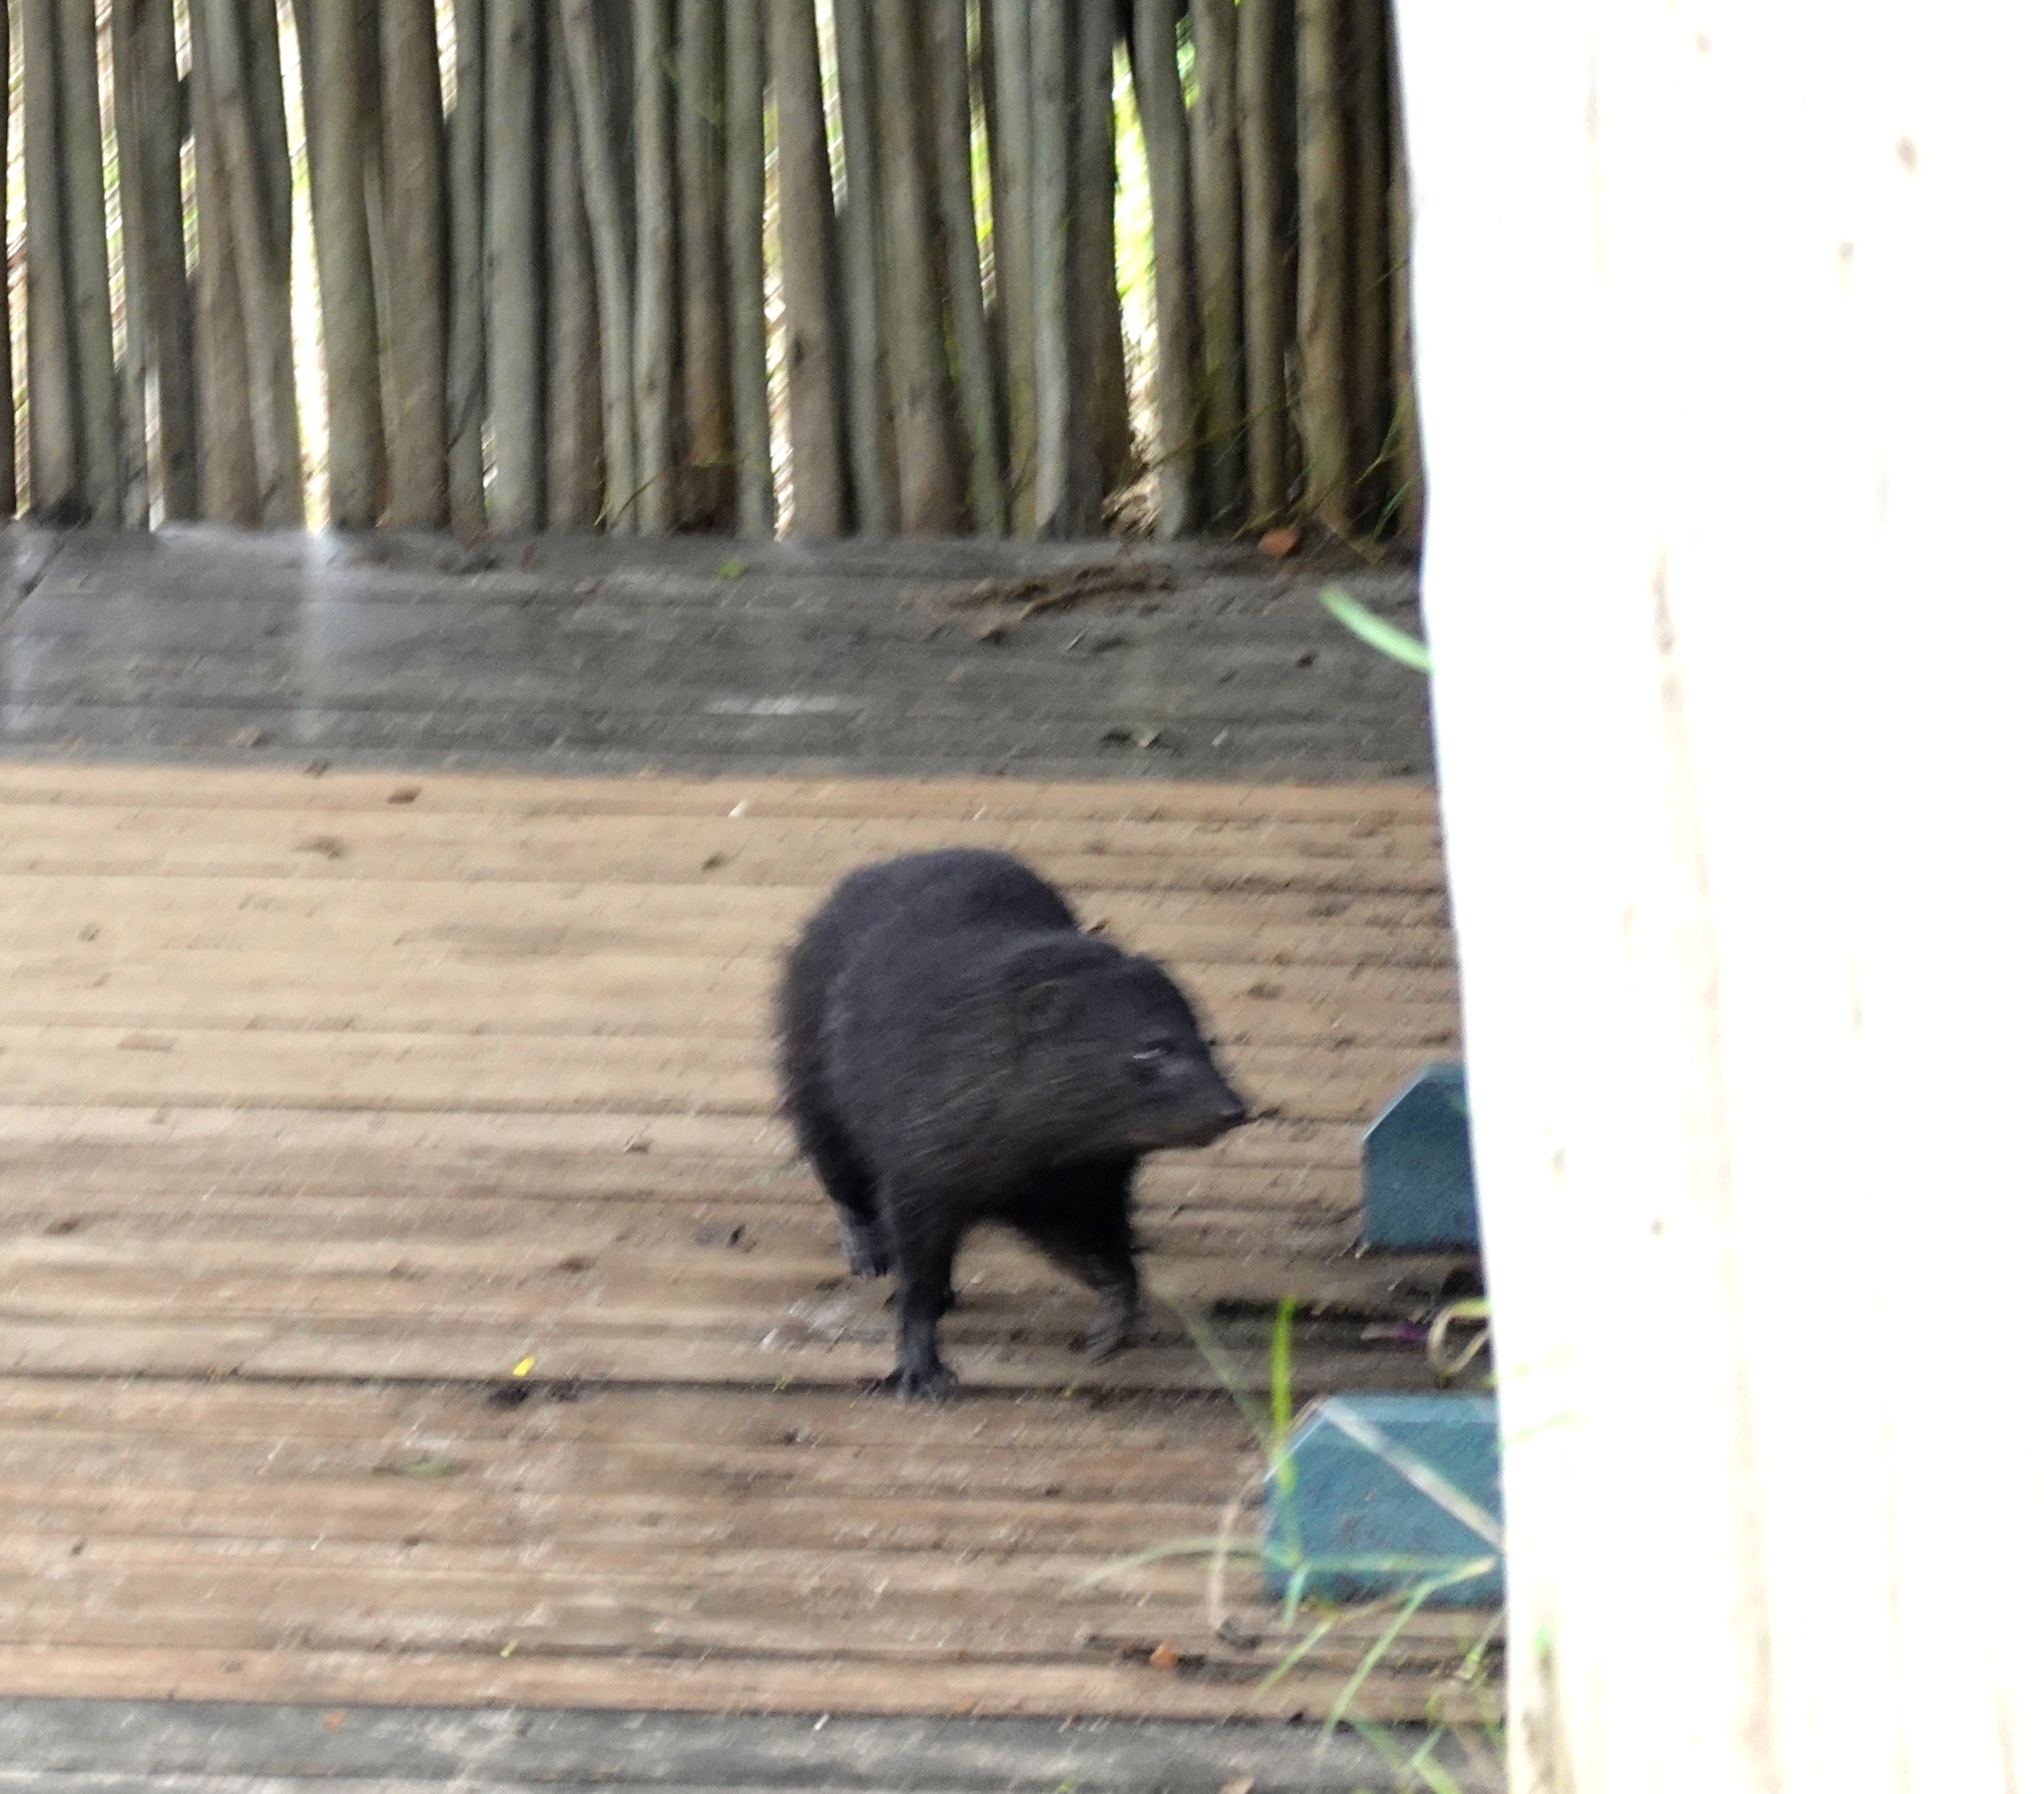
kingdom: Animalia
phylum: Chordata
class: Mammalia
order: Carnivora
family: Herpestidae
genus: Atilax
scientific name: Atilax paludinosus
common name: Marsh mongoose
